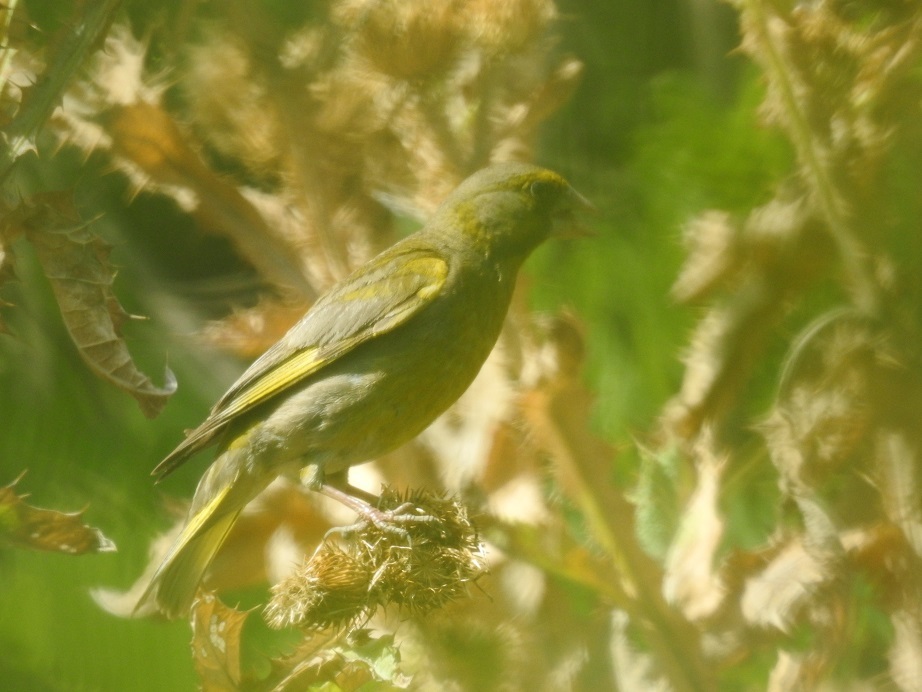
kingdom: Plantae
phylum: Tracheophyta
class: Liliopsida
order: Poales
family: Poaceae
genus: Chloris
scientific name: Chloris chloris
